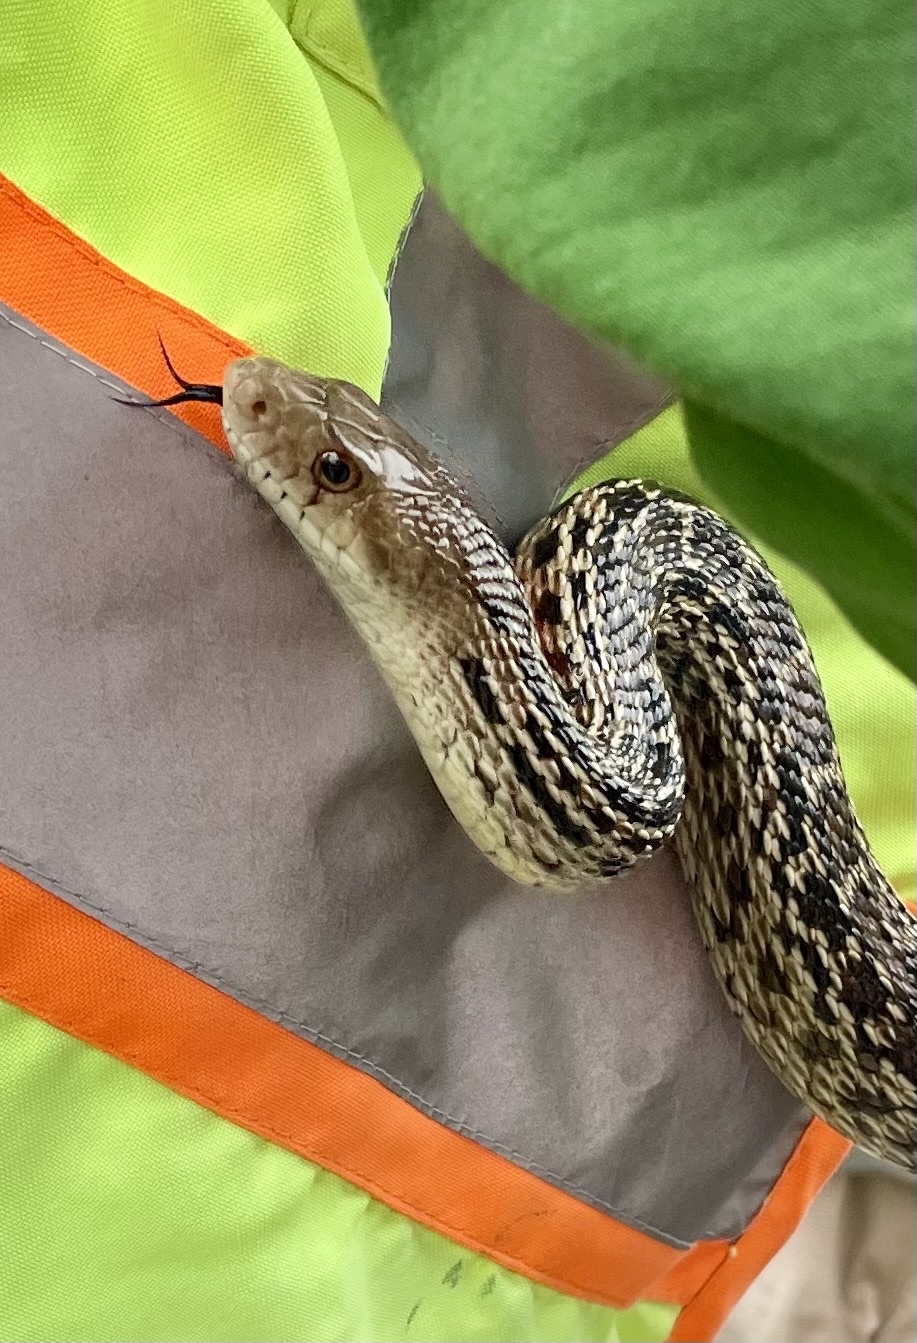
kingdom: Animalia
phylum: Chordata
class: Squamata
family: Colubridae
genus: Pituophis
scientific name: Pituophis catenifer
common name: Gopher snake
